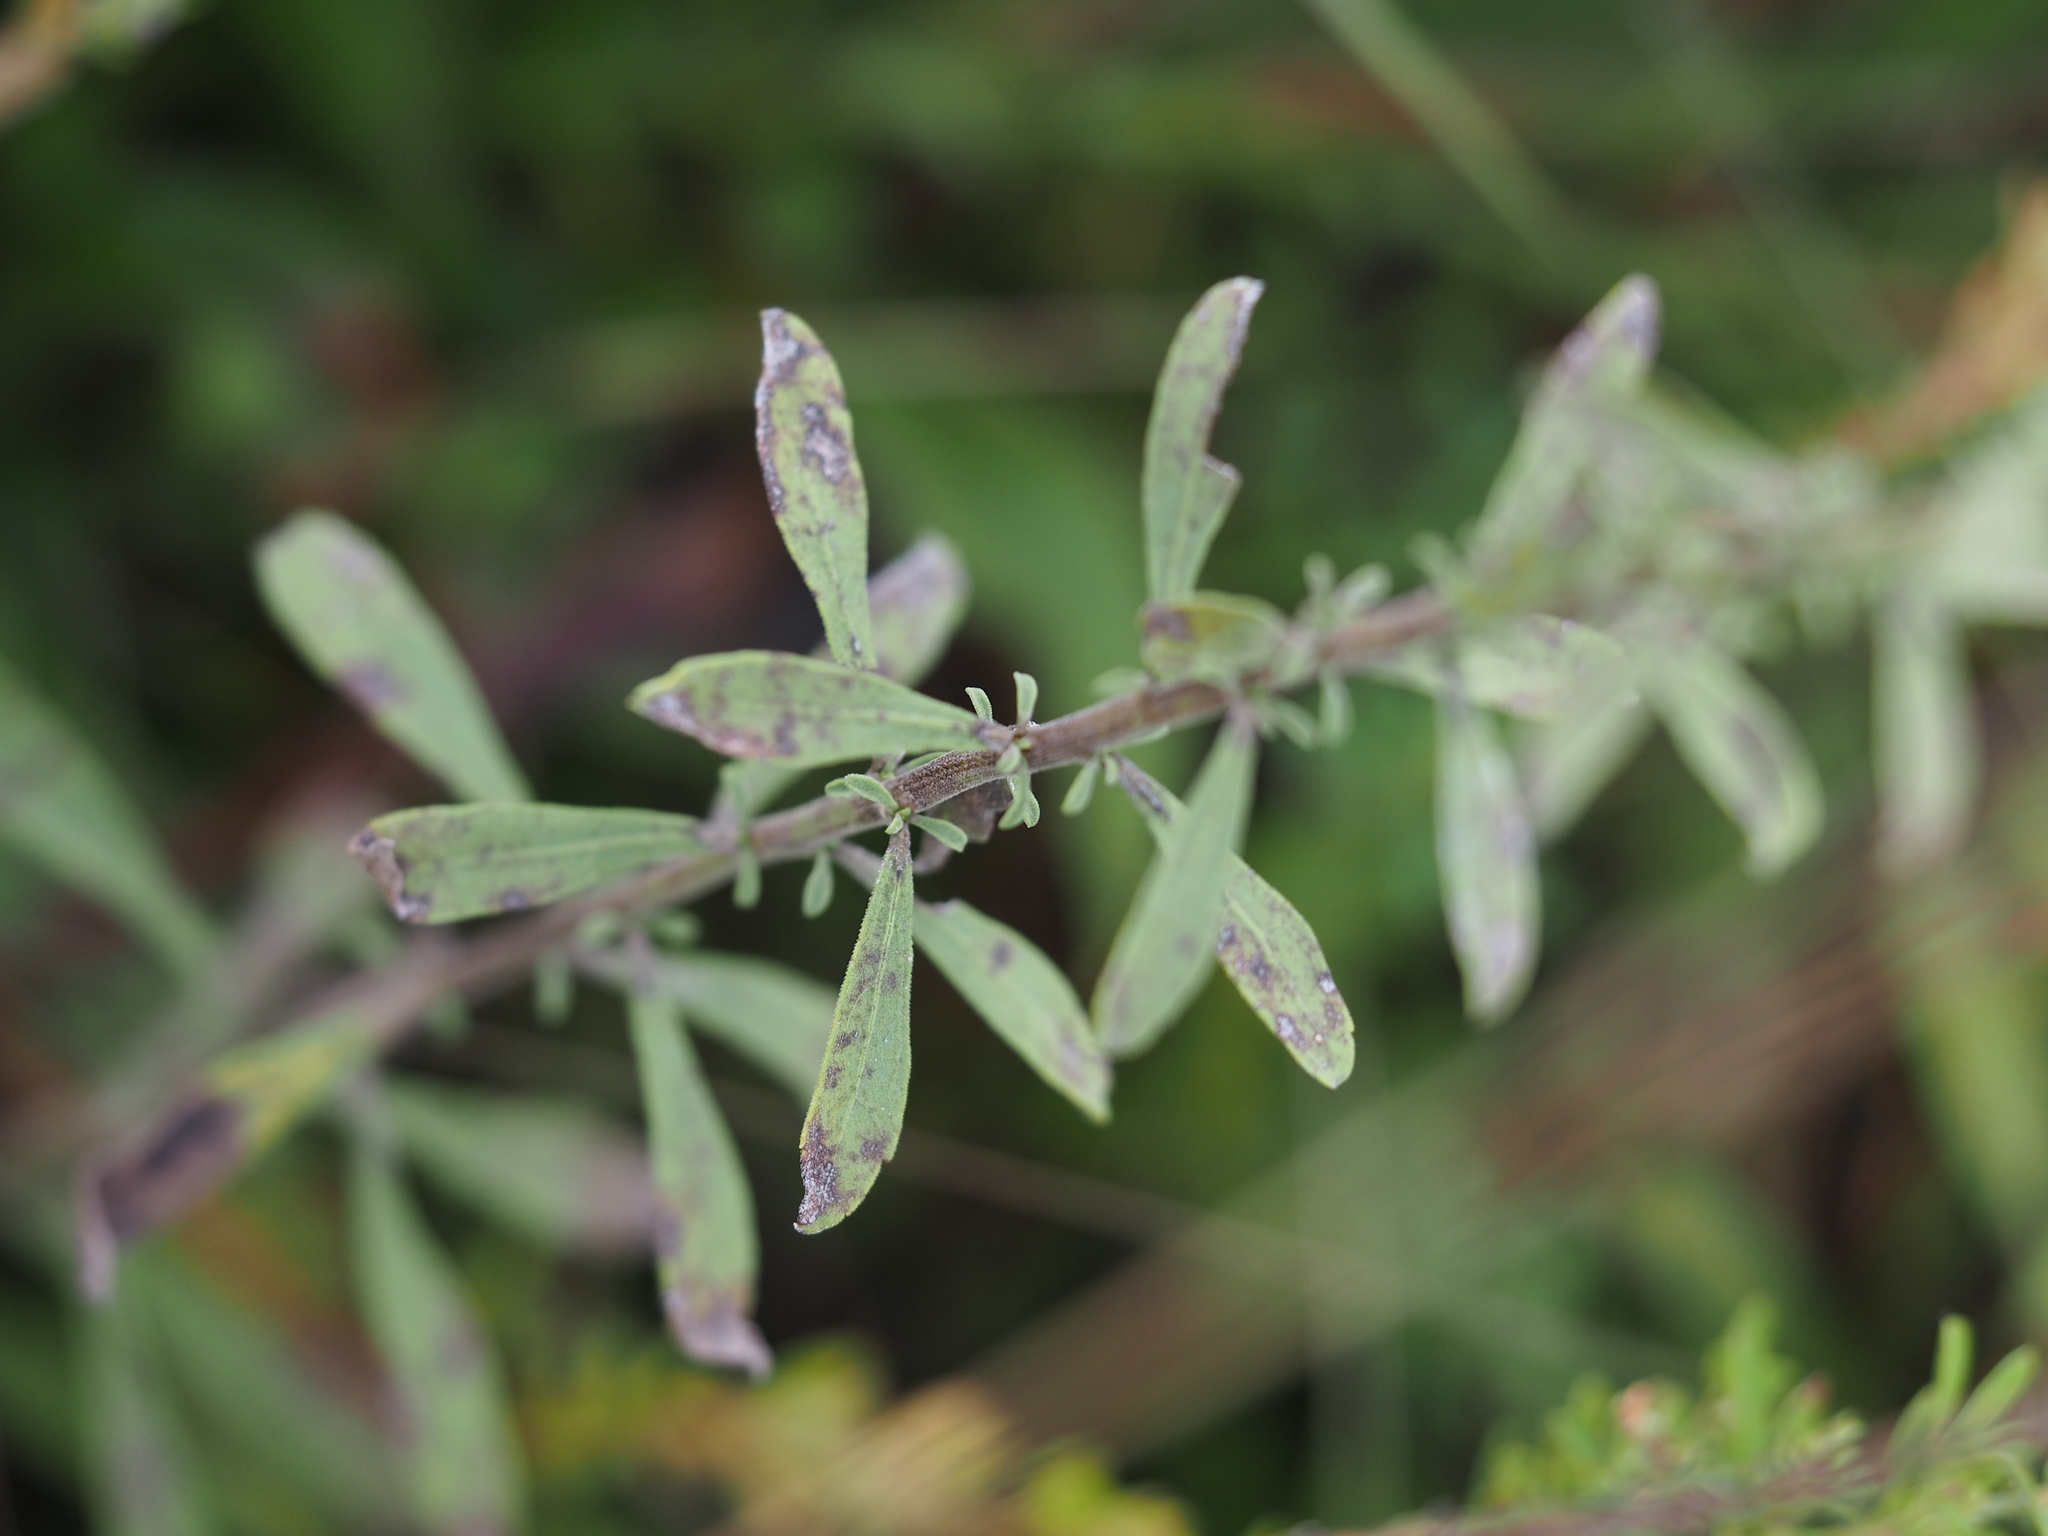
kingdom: Plantae
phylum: Tracheophyta
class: Magnoliopsida
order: Asterales
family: Asteraceae
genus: Solidago
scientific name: Solidago nemoralis
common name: Grey goldenrod
